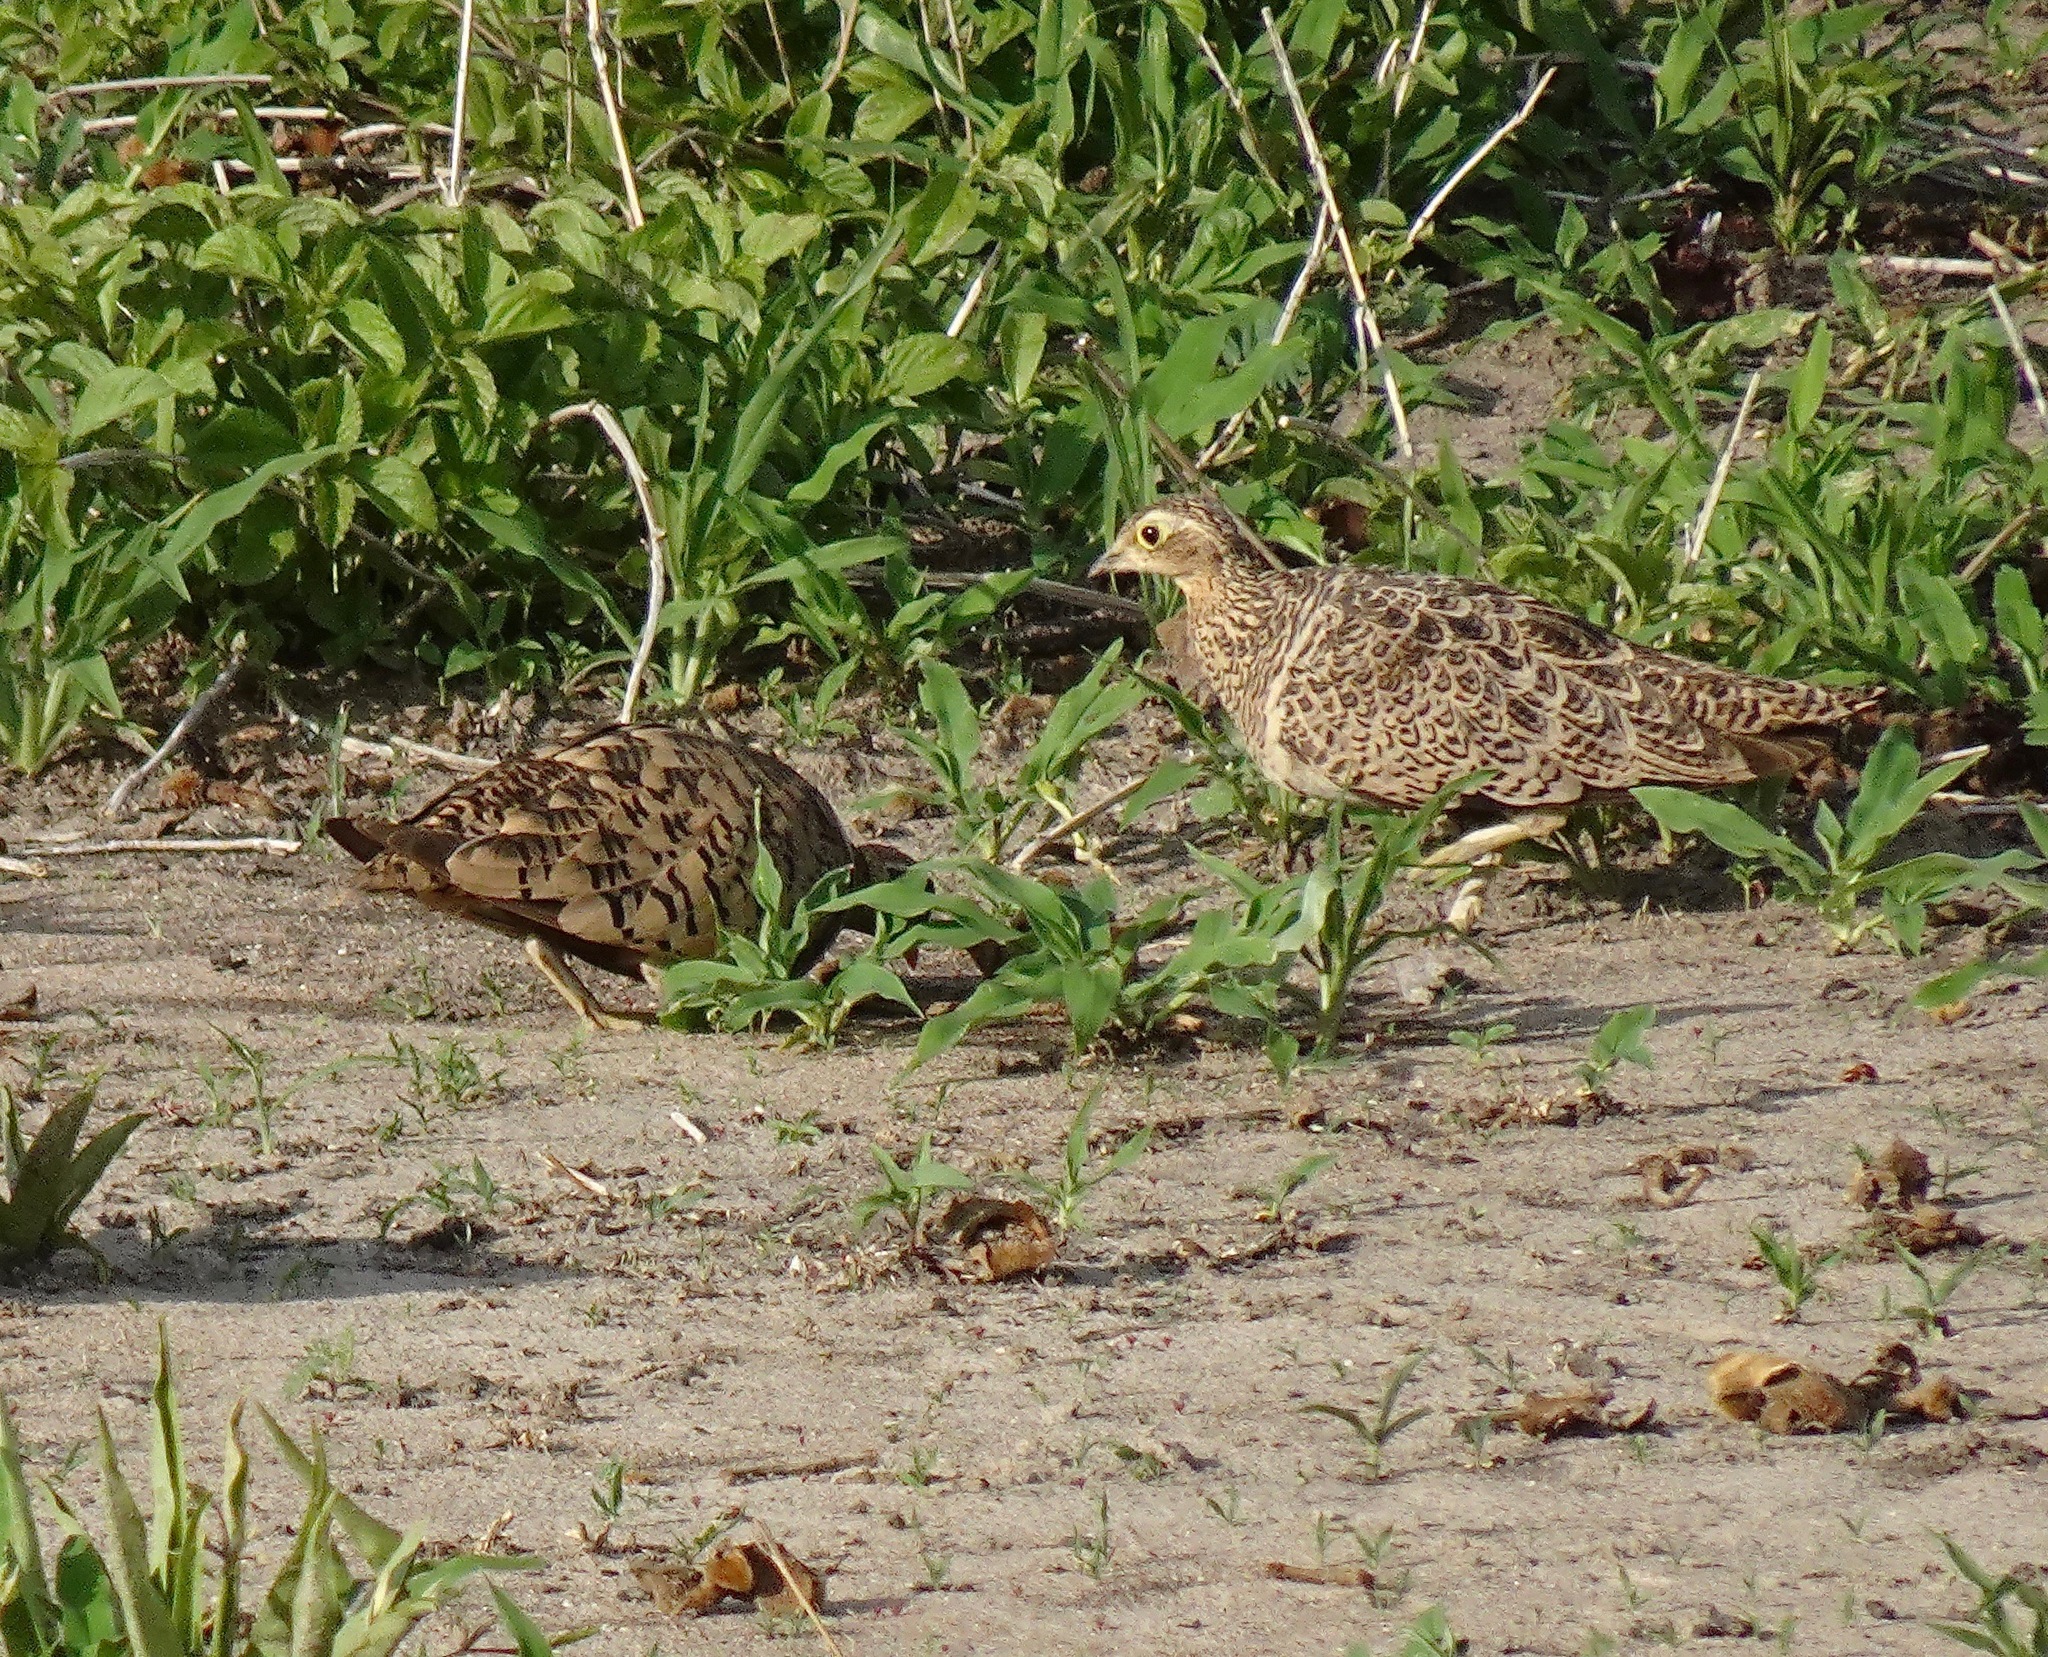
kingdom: Animalia
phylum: Chordata
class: Aves
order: Pteroclidiformes
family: Pteroclididae
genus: Pterocles
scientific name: Pterocles decoratus
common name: Black-faced sandgrouse
